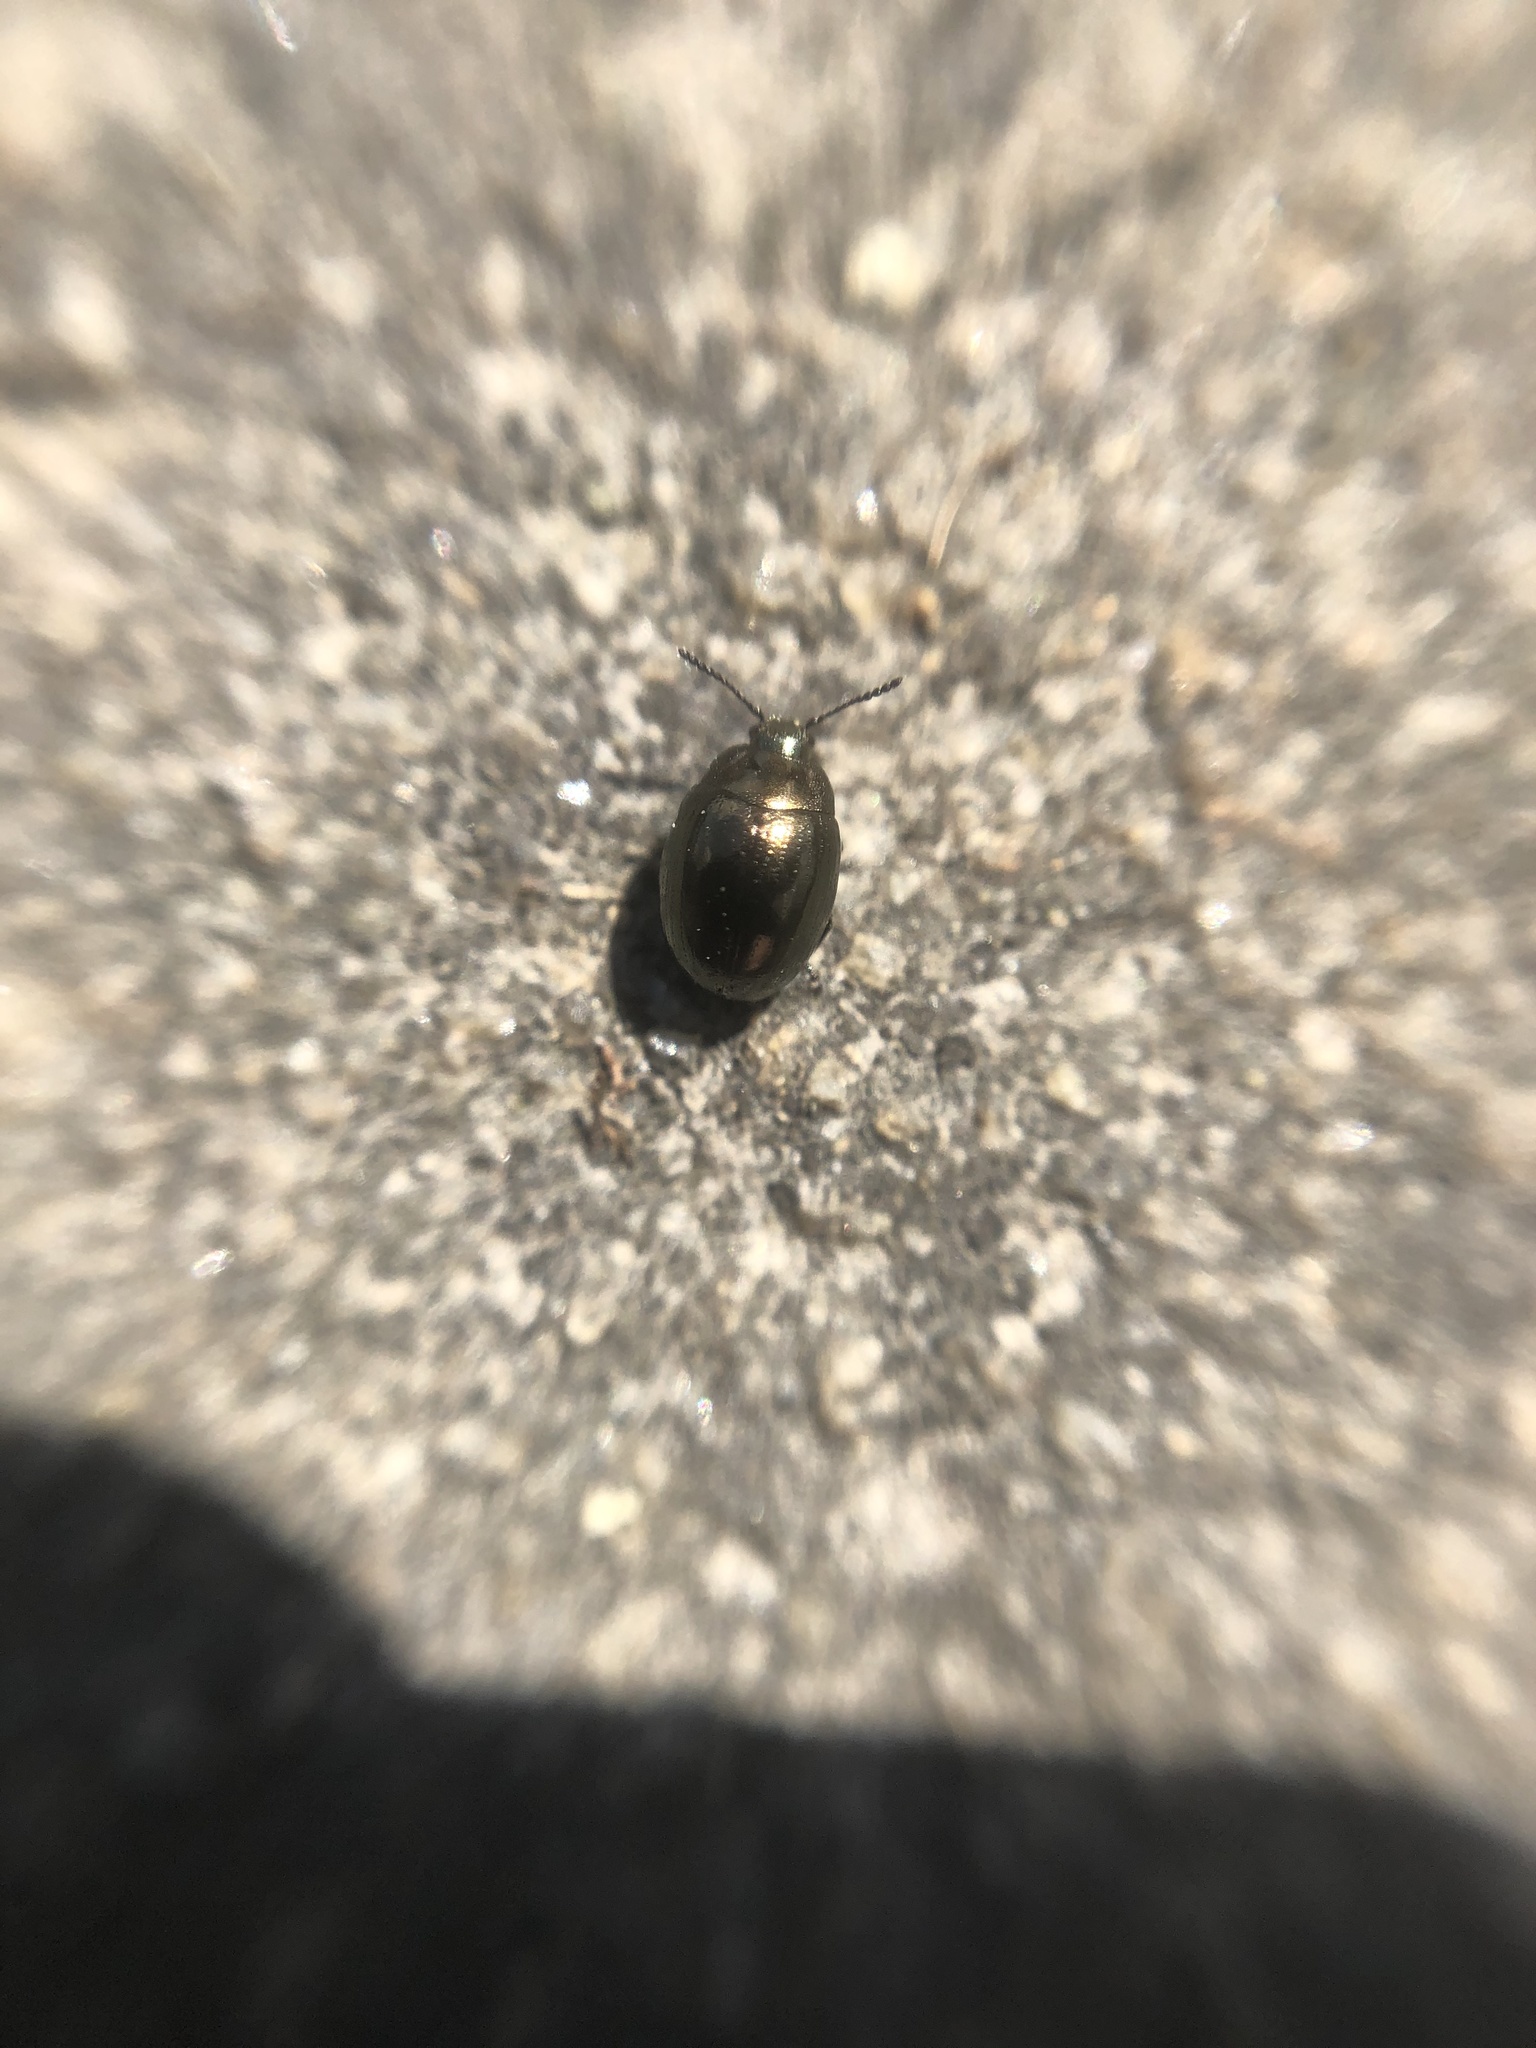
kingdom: Animalia
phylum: Arthropoda
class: Insecta
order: Coleoptera
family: Chrysomelidae
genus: Phaedon
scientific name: Phaedon tumidulus
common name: Celery leaf beetle
